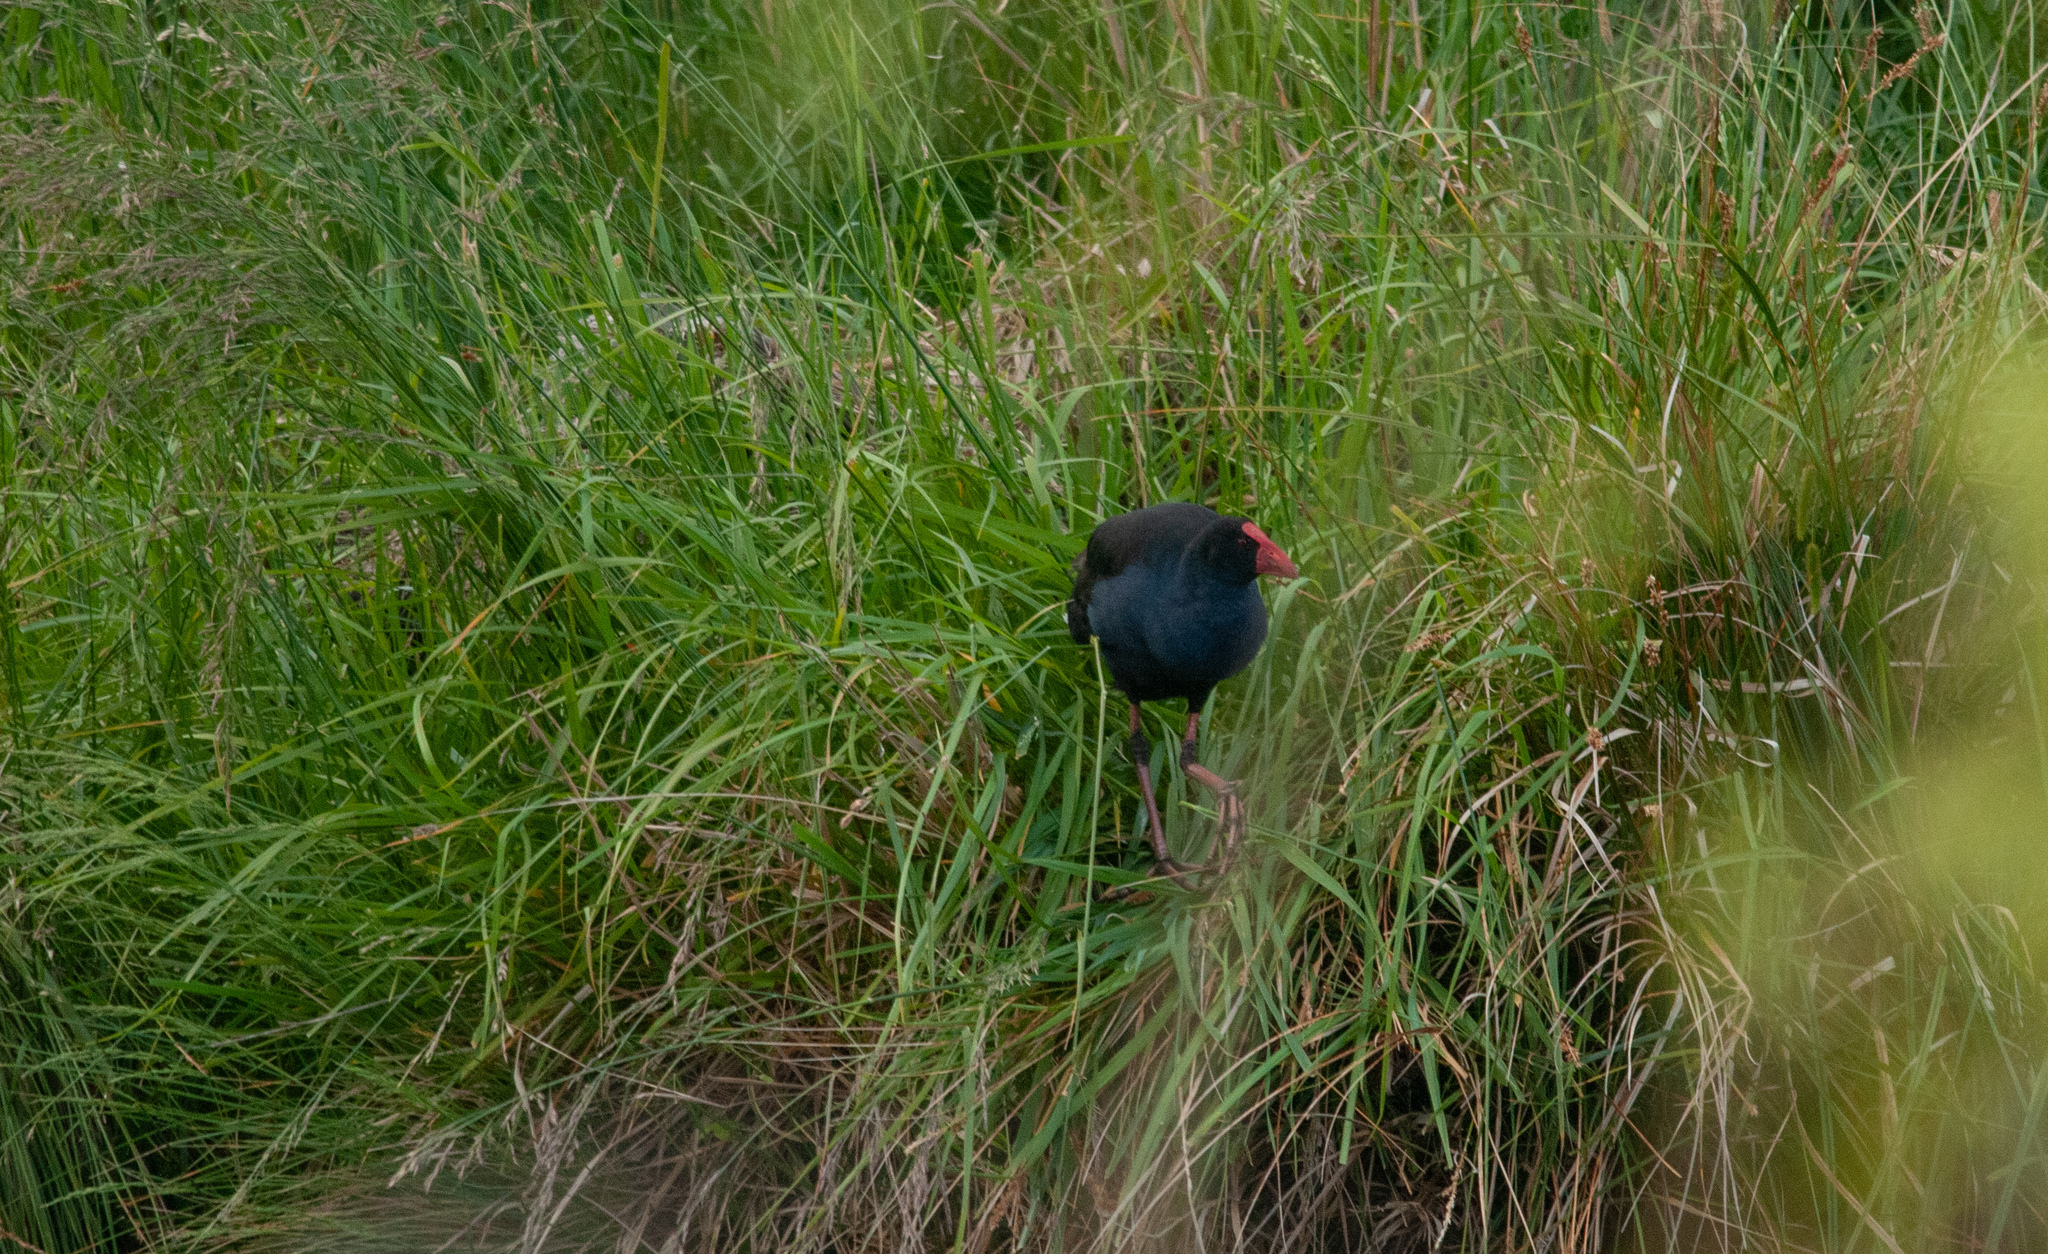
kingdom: Animalia
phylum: Chordata
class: Aves
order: Gruiformes
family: Rallidae
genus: Porphyrio
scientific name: Porphyrio melanotus
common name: Australasian swamphen
